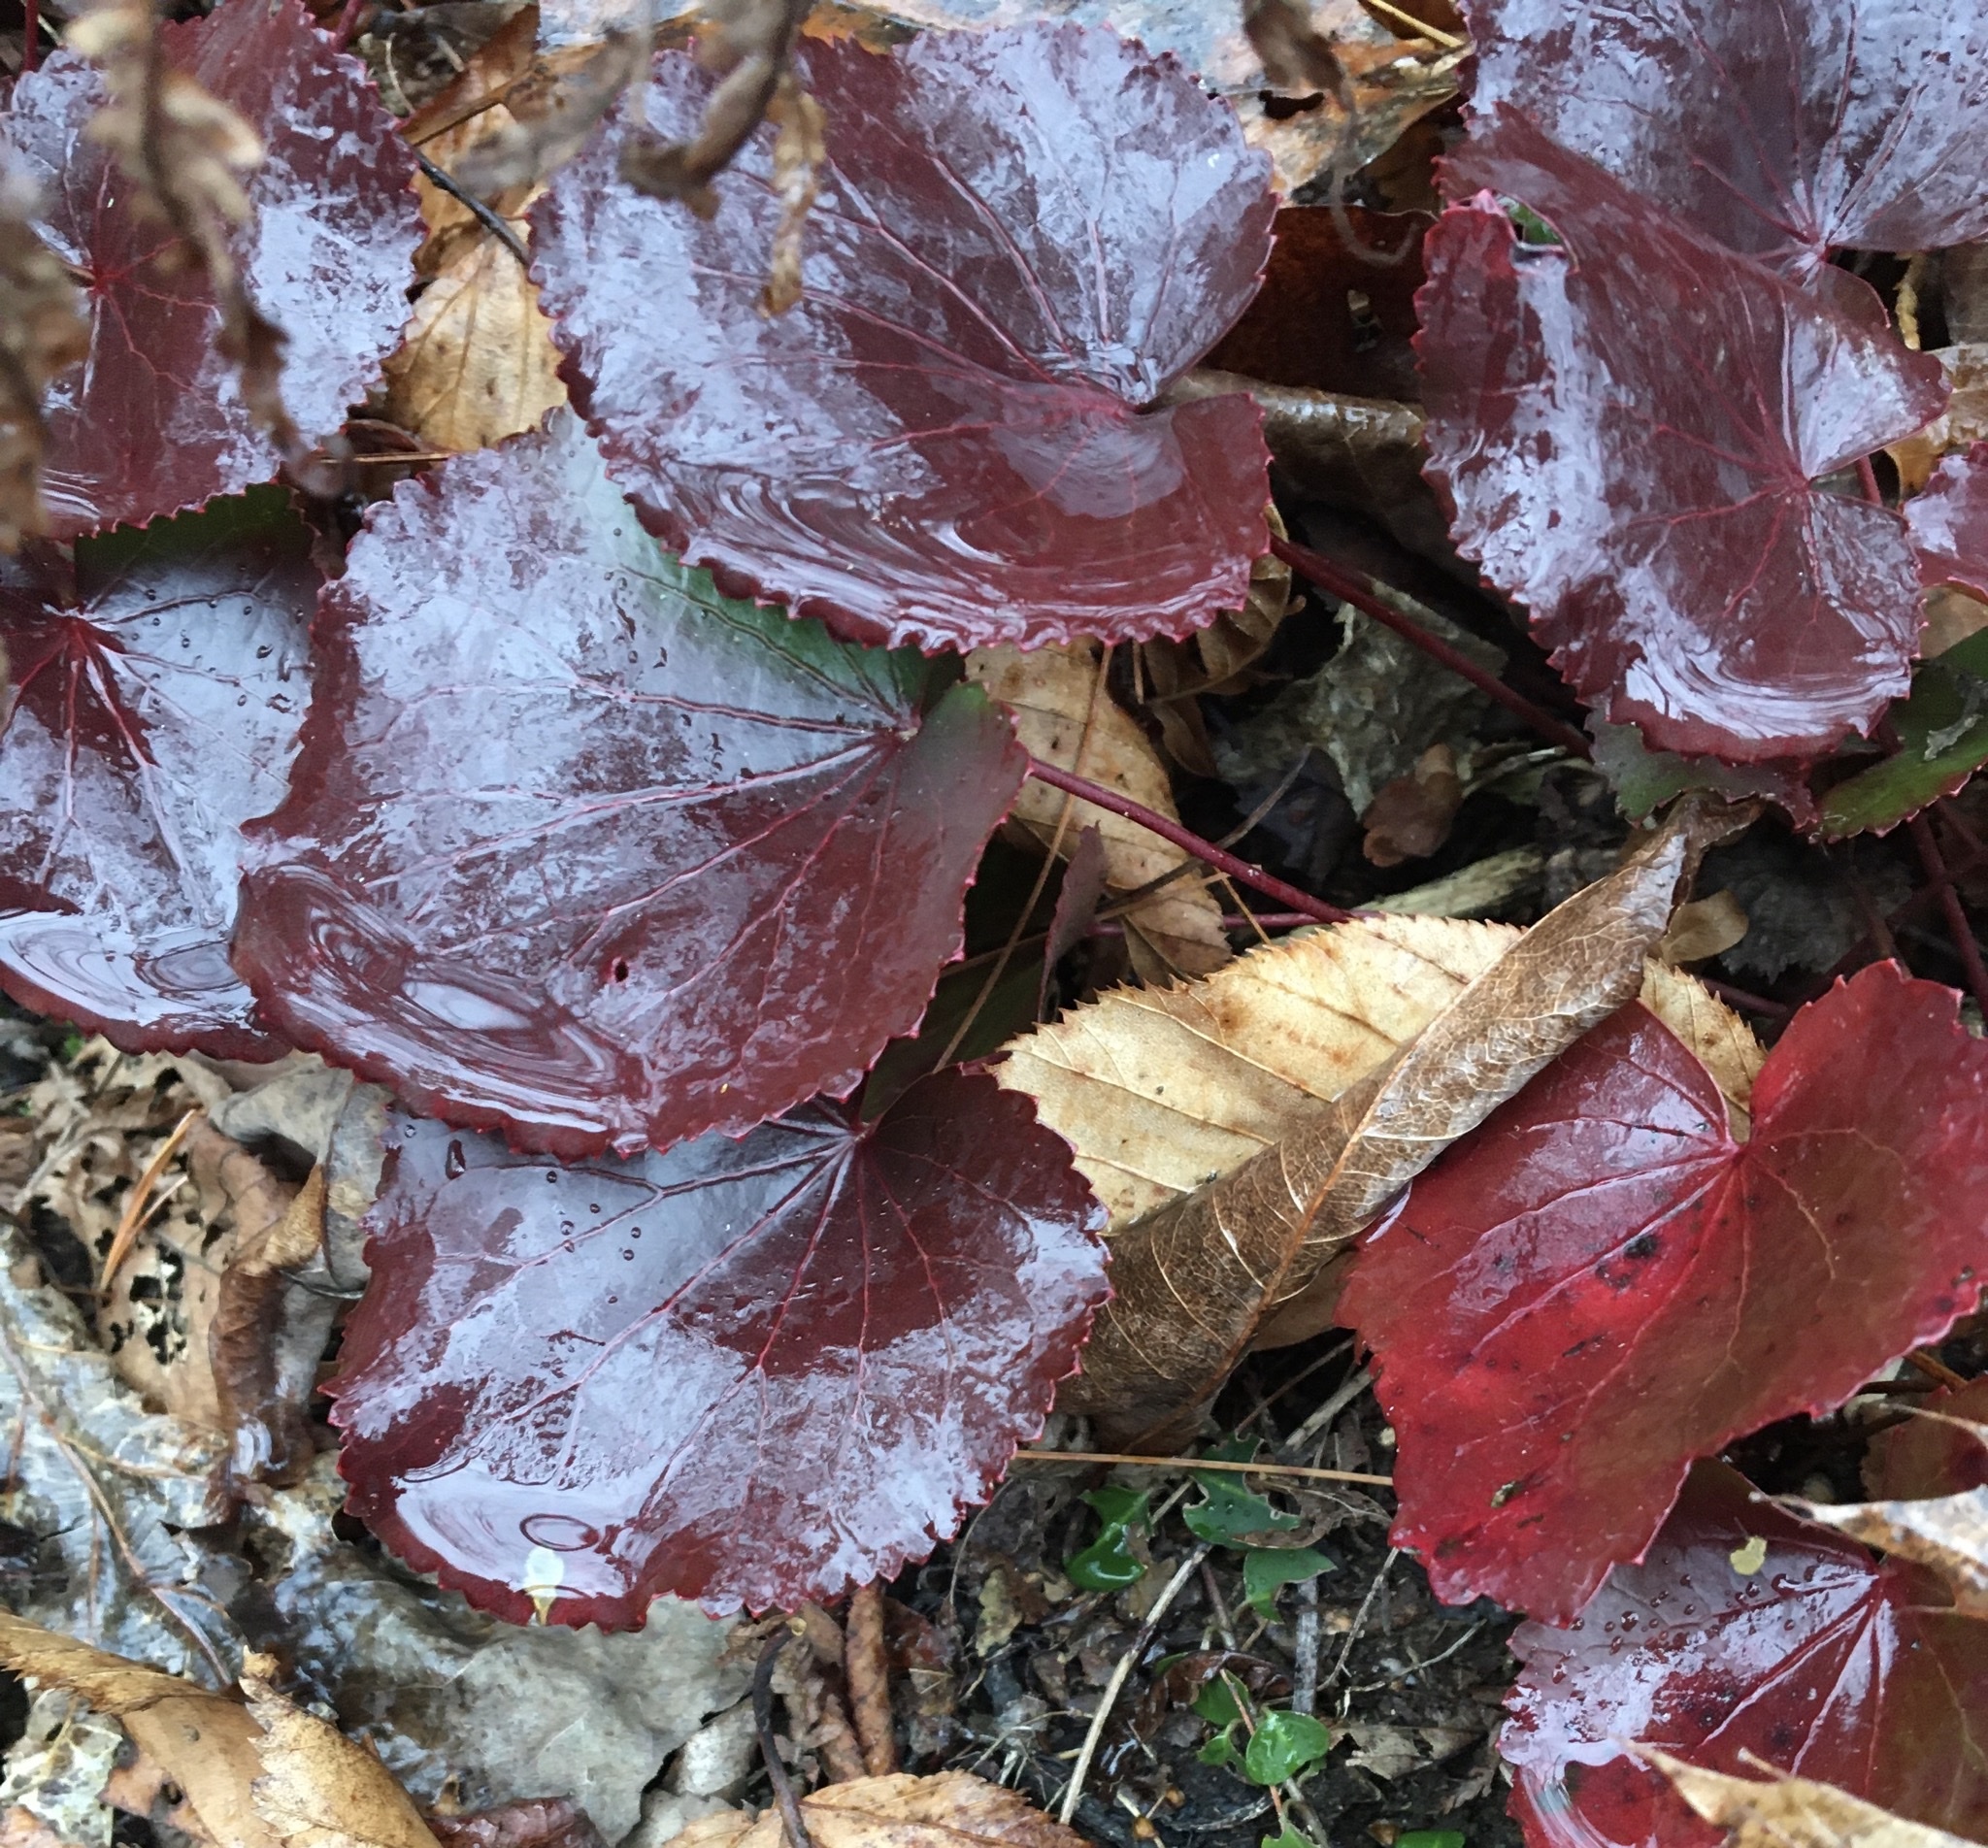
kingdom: Plantae
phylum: Tracheophyta
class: Magnoliopsida
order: Ericales
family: Diapensiaceae
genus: Galax
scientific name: Galax urceolata
